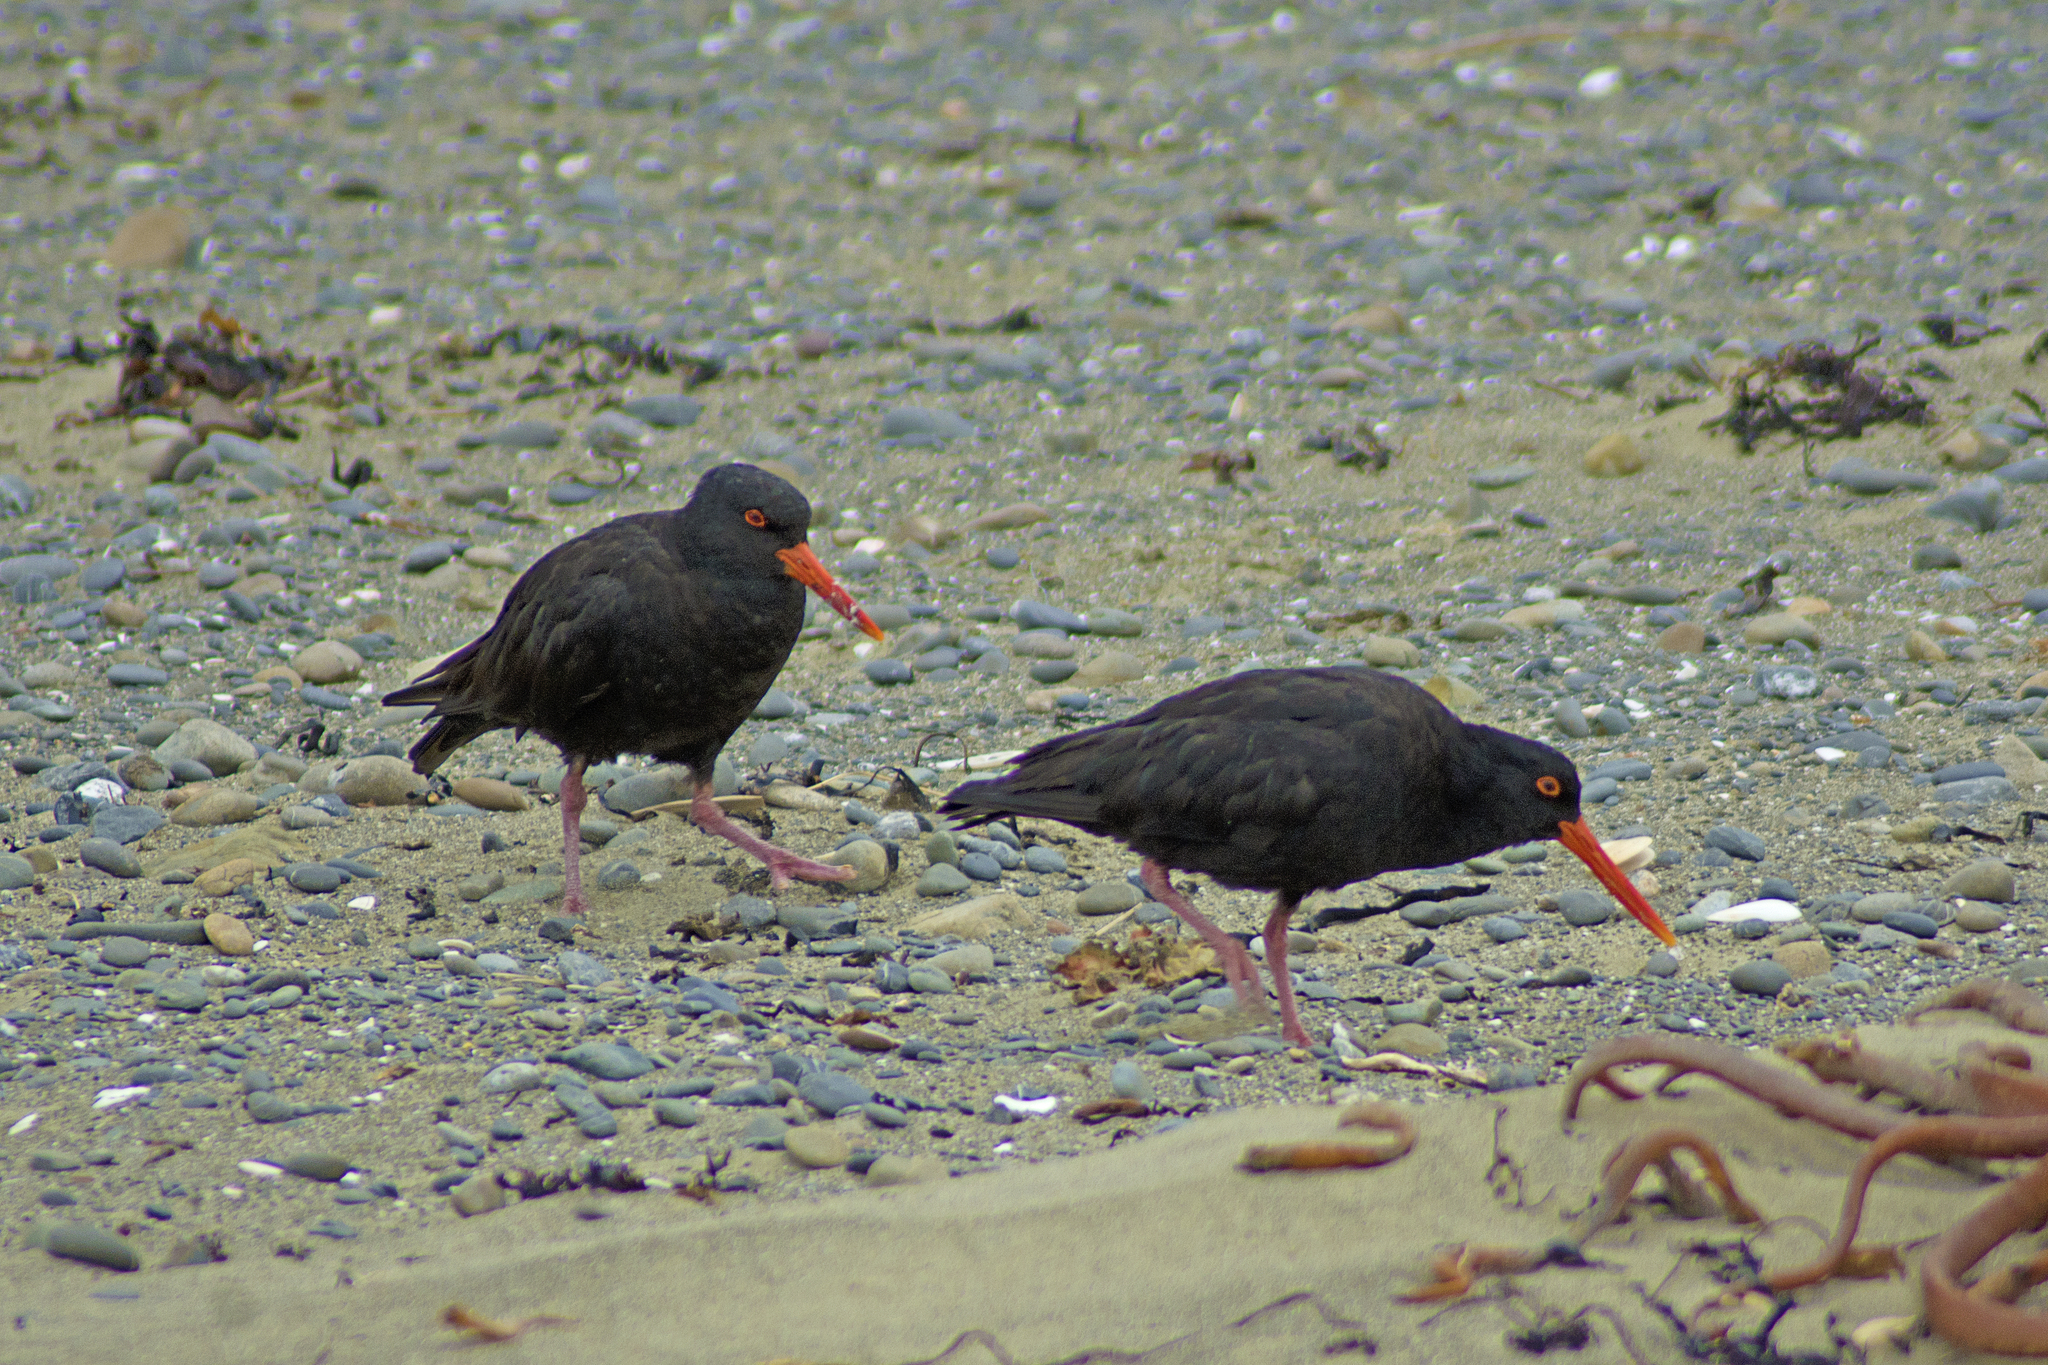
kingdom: Animalia
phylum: Chordata
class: Aves
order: Charadriiformes
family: Haematopodidae
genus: Haematopus
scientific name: Haematopus unicolor
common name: Variable oystercatcher
